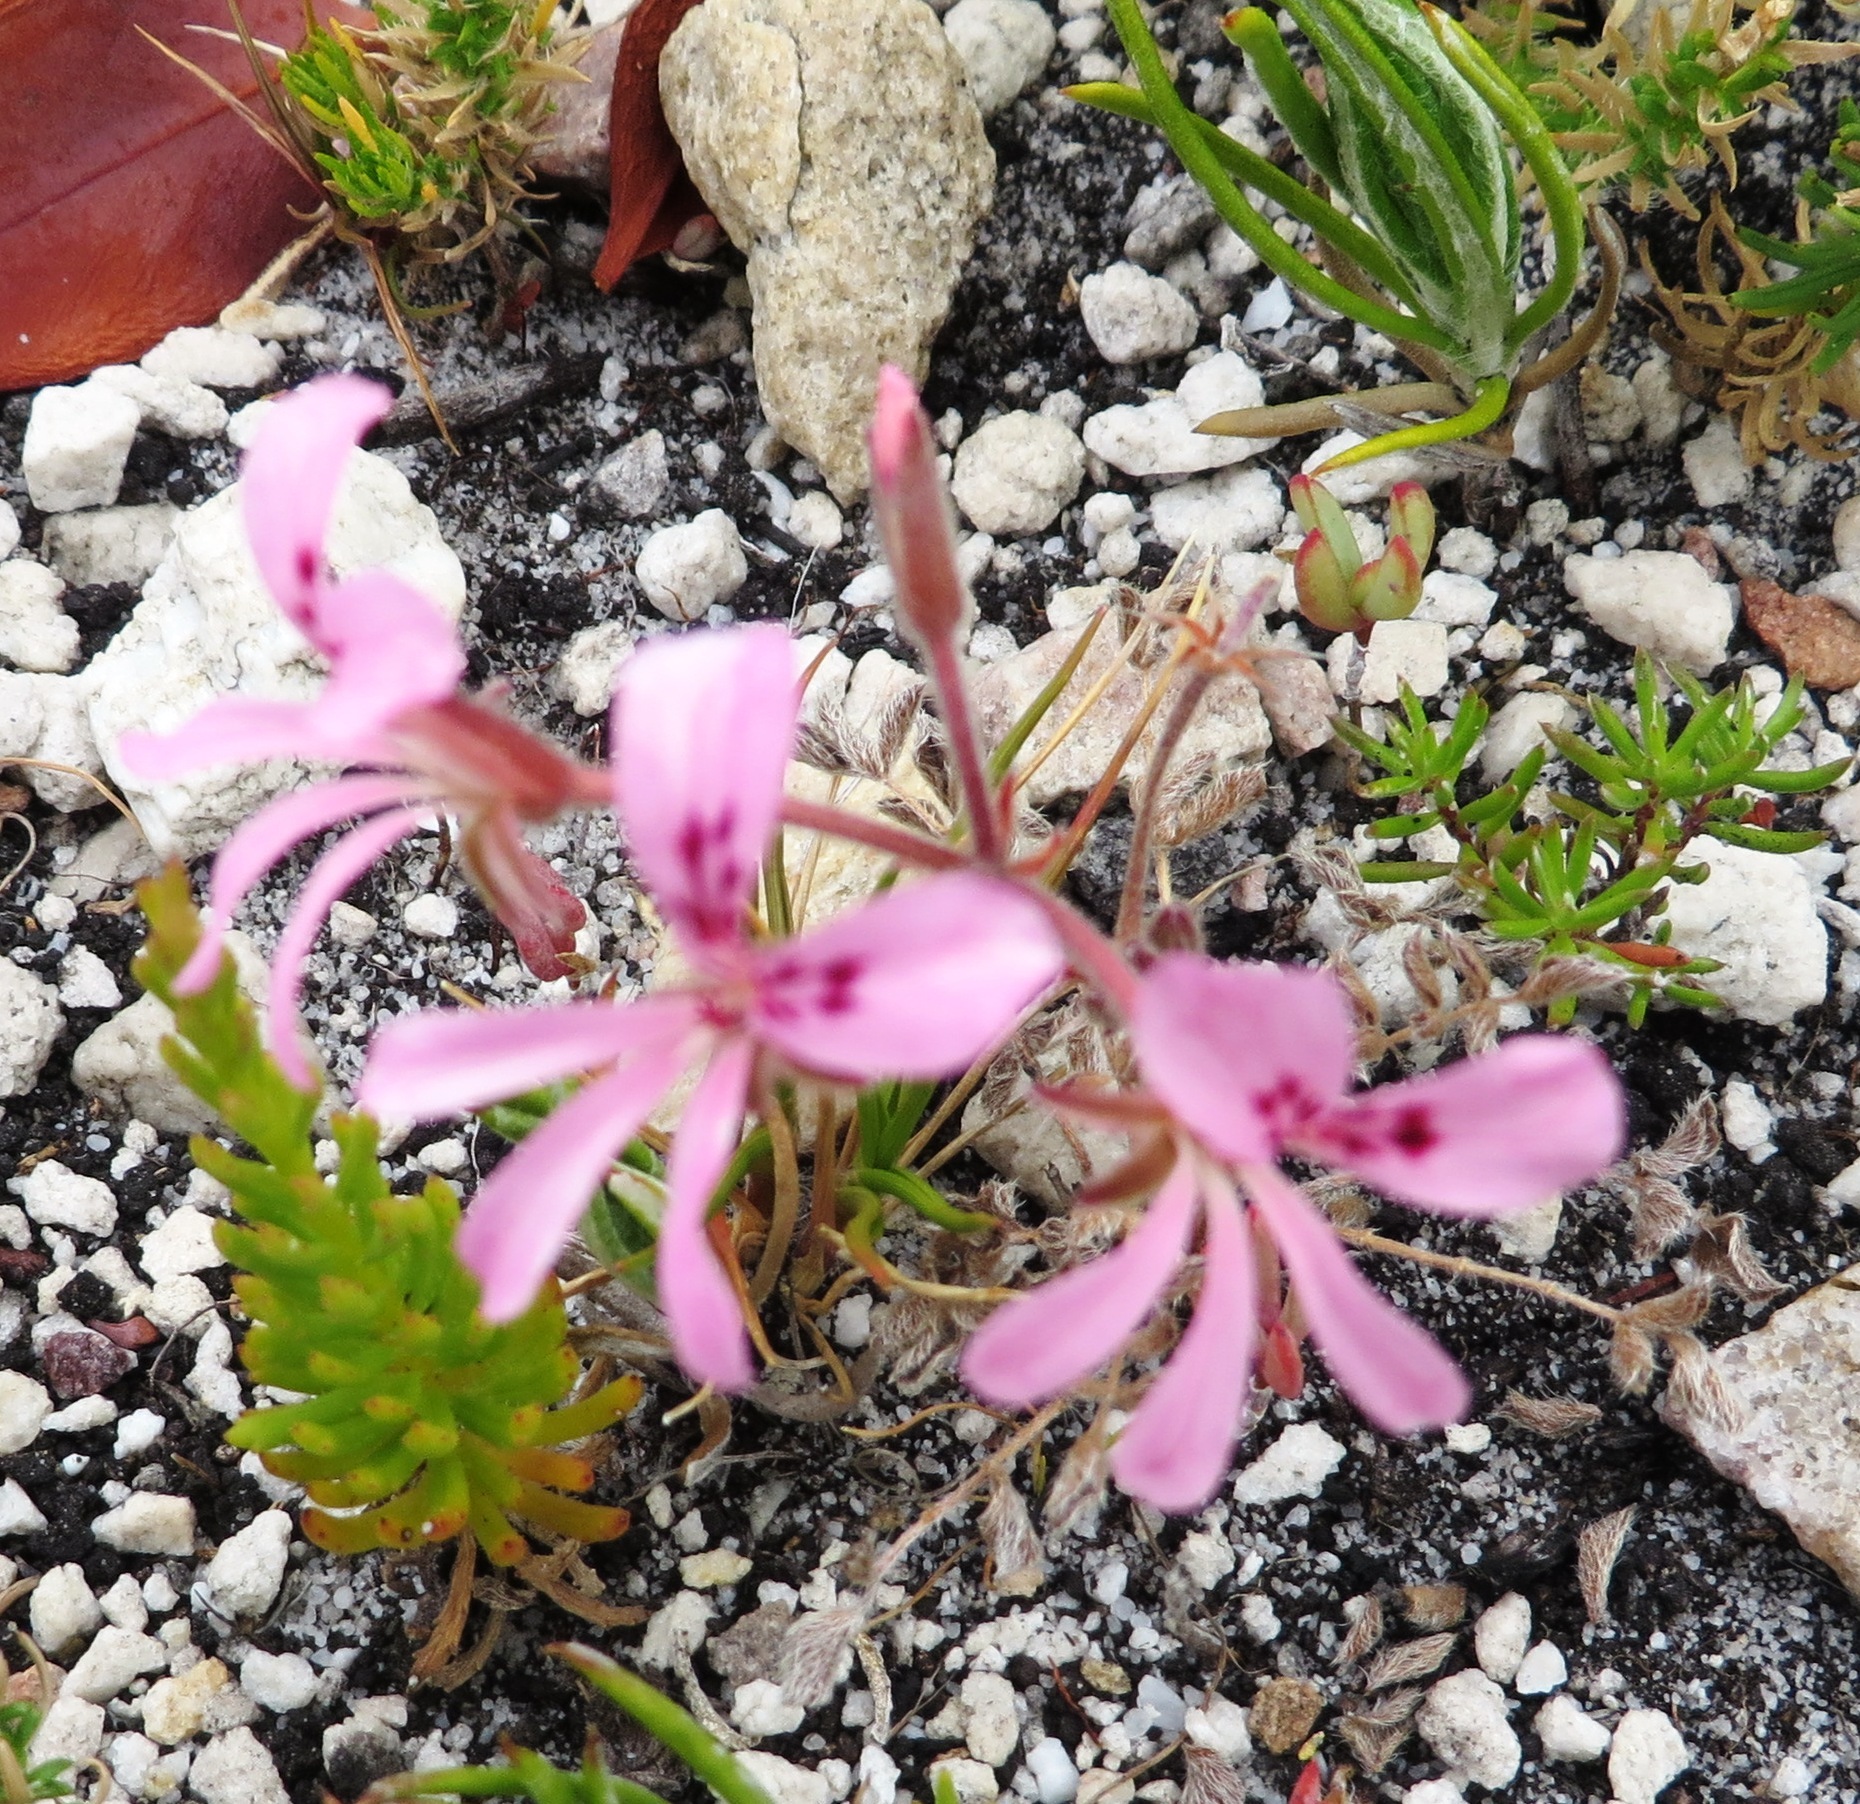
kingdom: Plantae
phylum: Tracheophyta
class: Magnoliopsida
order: Geraniales
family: Geraniaceae
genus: Pelargonium
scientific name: Pelargonium pinnatum
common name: Pinnated pelargonium
